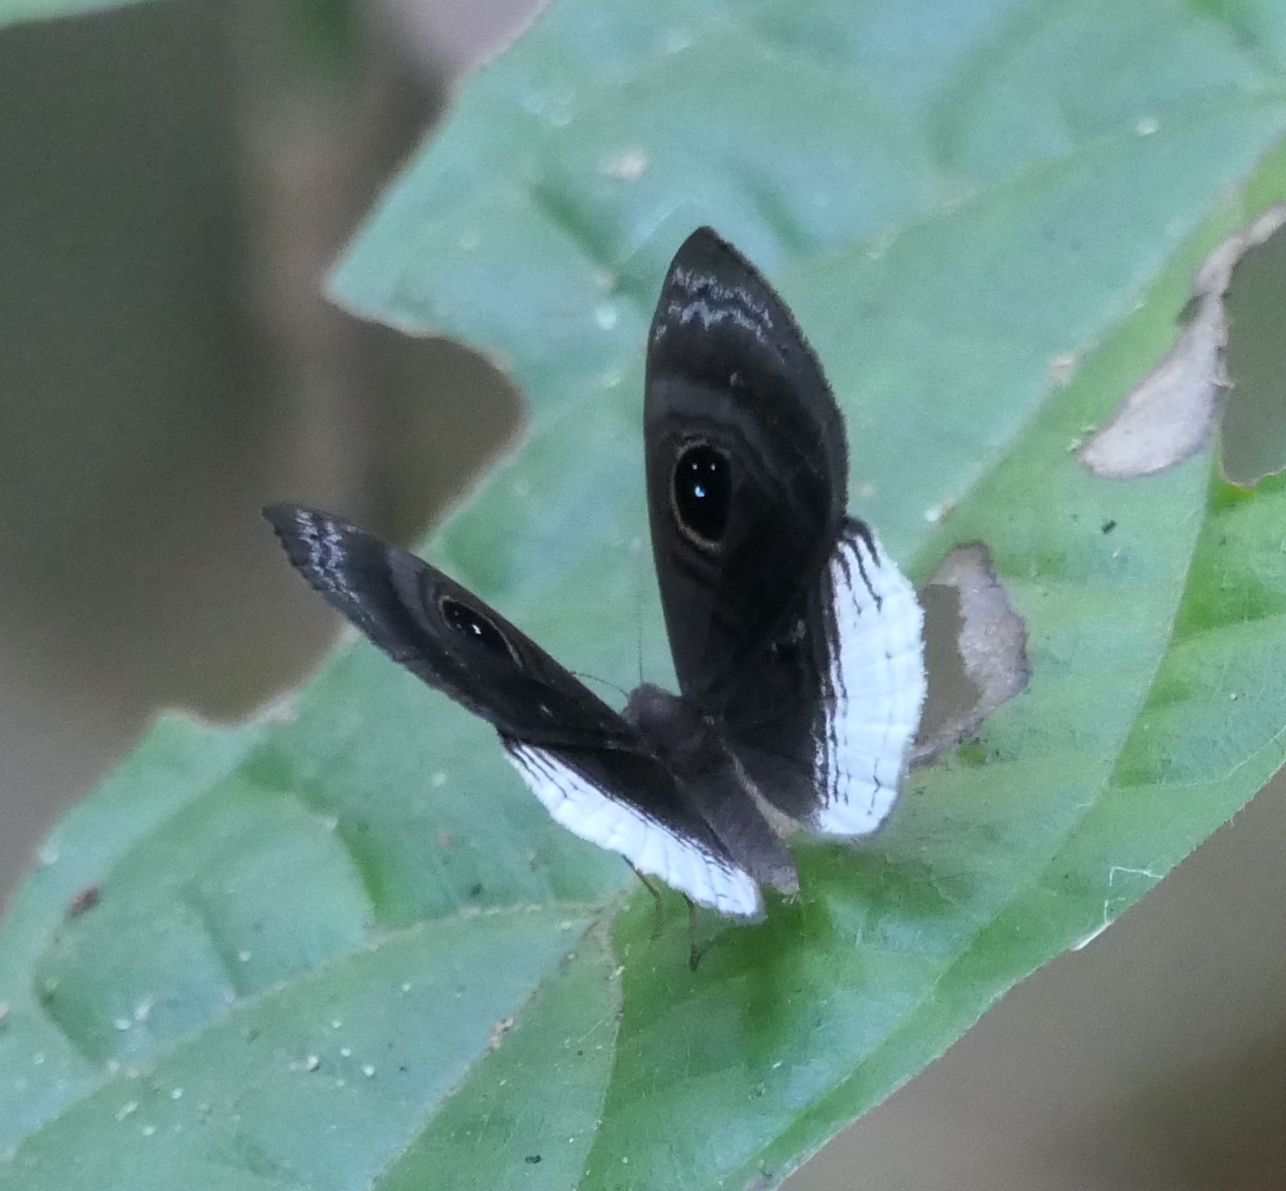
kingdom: Animalia
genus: Mesosemia
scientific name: Mesosemia nyctea
